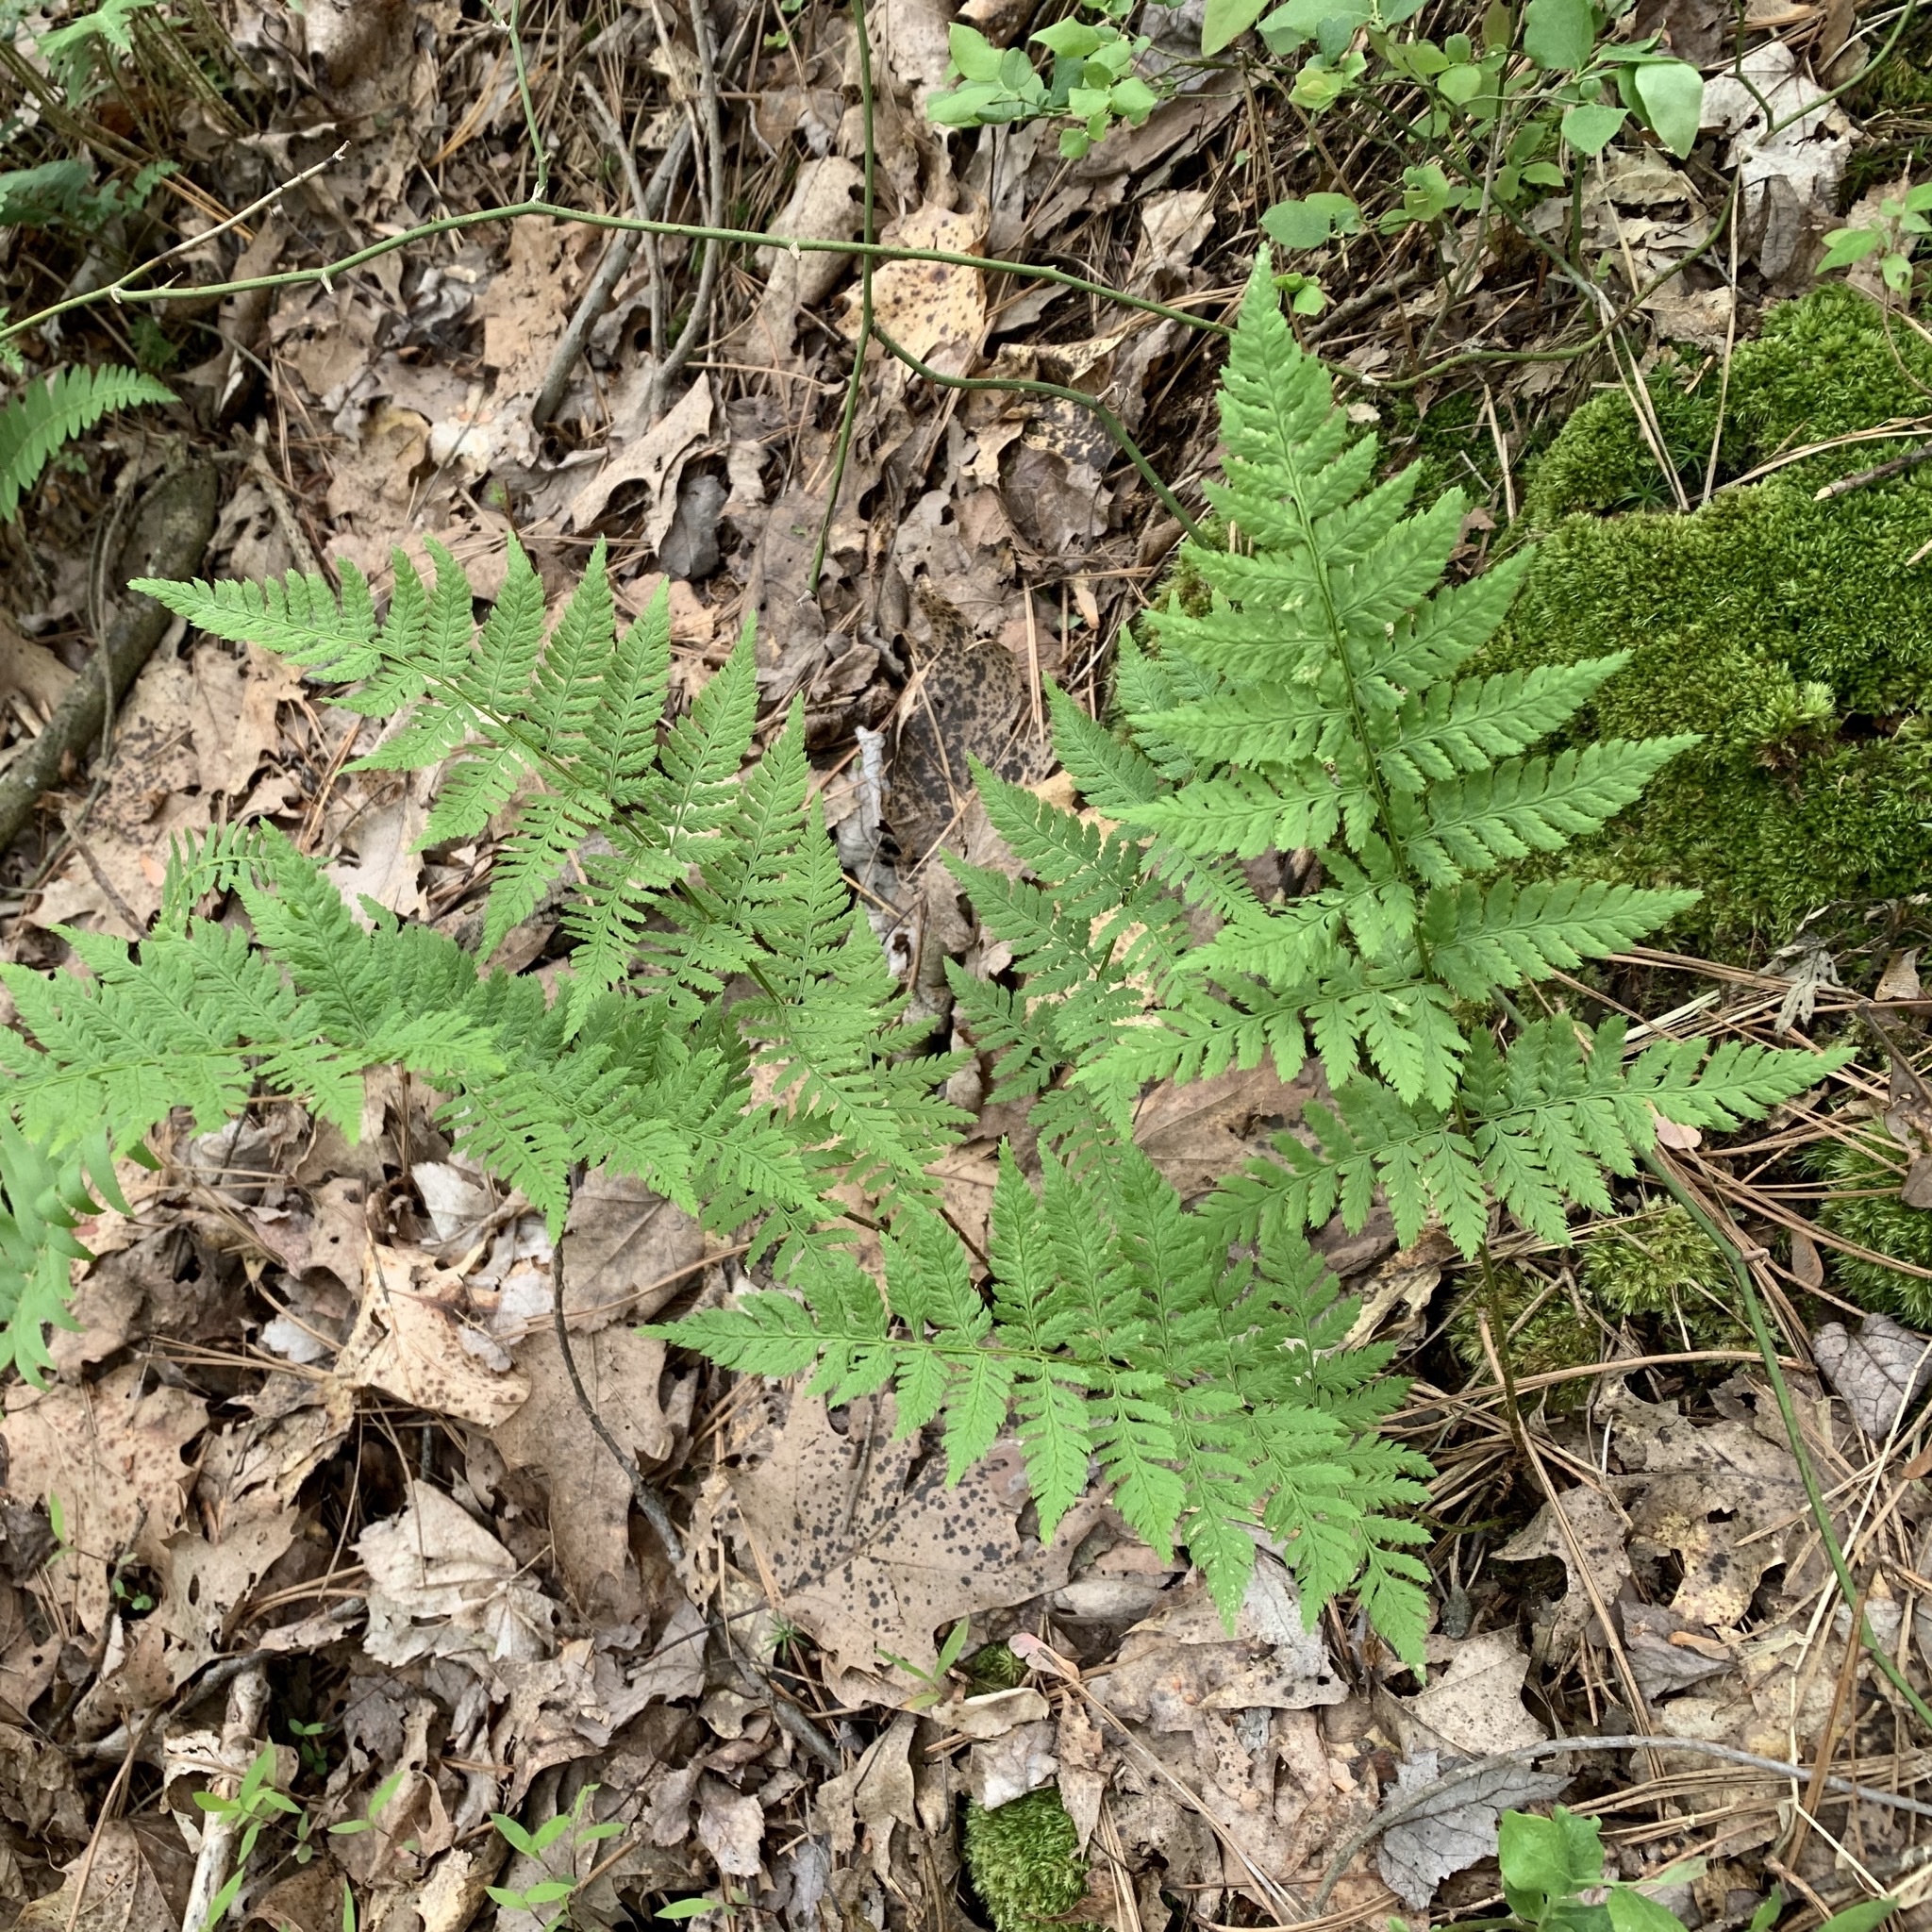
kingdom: Plantae
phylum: Tracheophyta
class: Polypodiopsida
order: Polypodiales
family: Dryopteridaceae
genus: Dryopteris
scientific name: Dryopteris carthusiana
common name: Narrow buckler-fern
